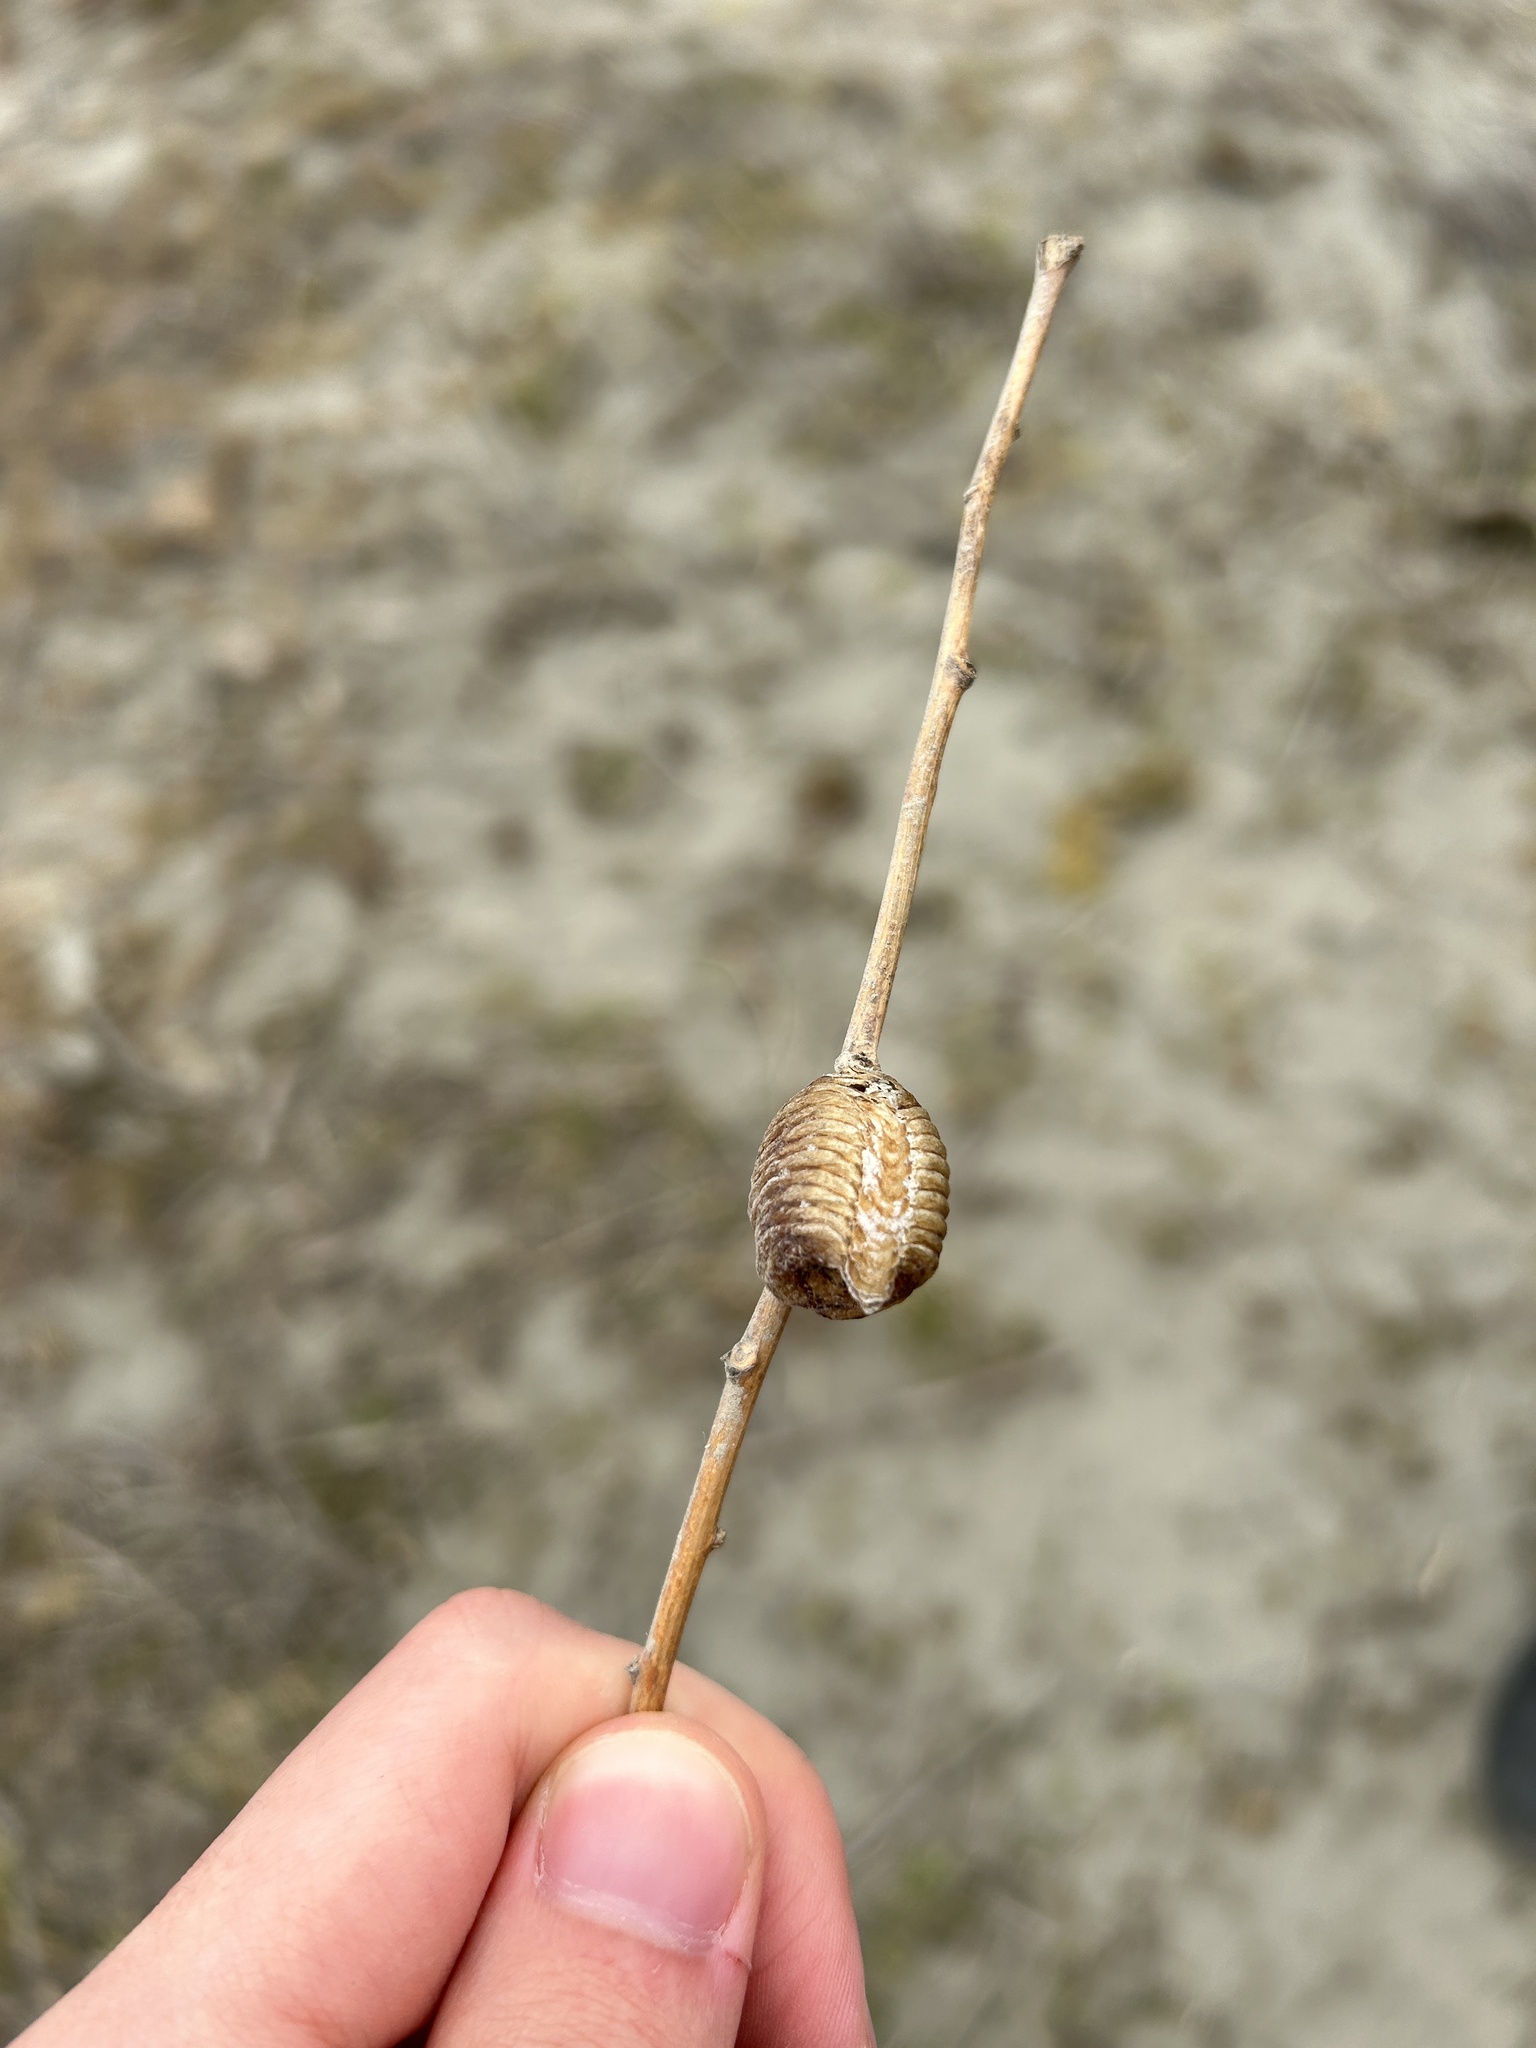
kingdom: Animalia
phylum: Arthropoda
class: Insecta
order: Mantodea
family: Mantidae
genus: Hierodula
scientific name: Hierodula transcaucasica
